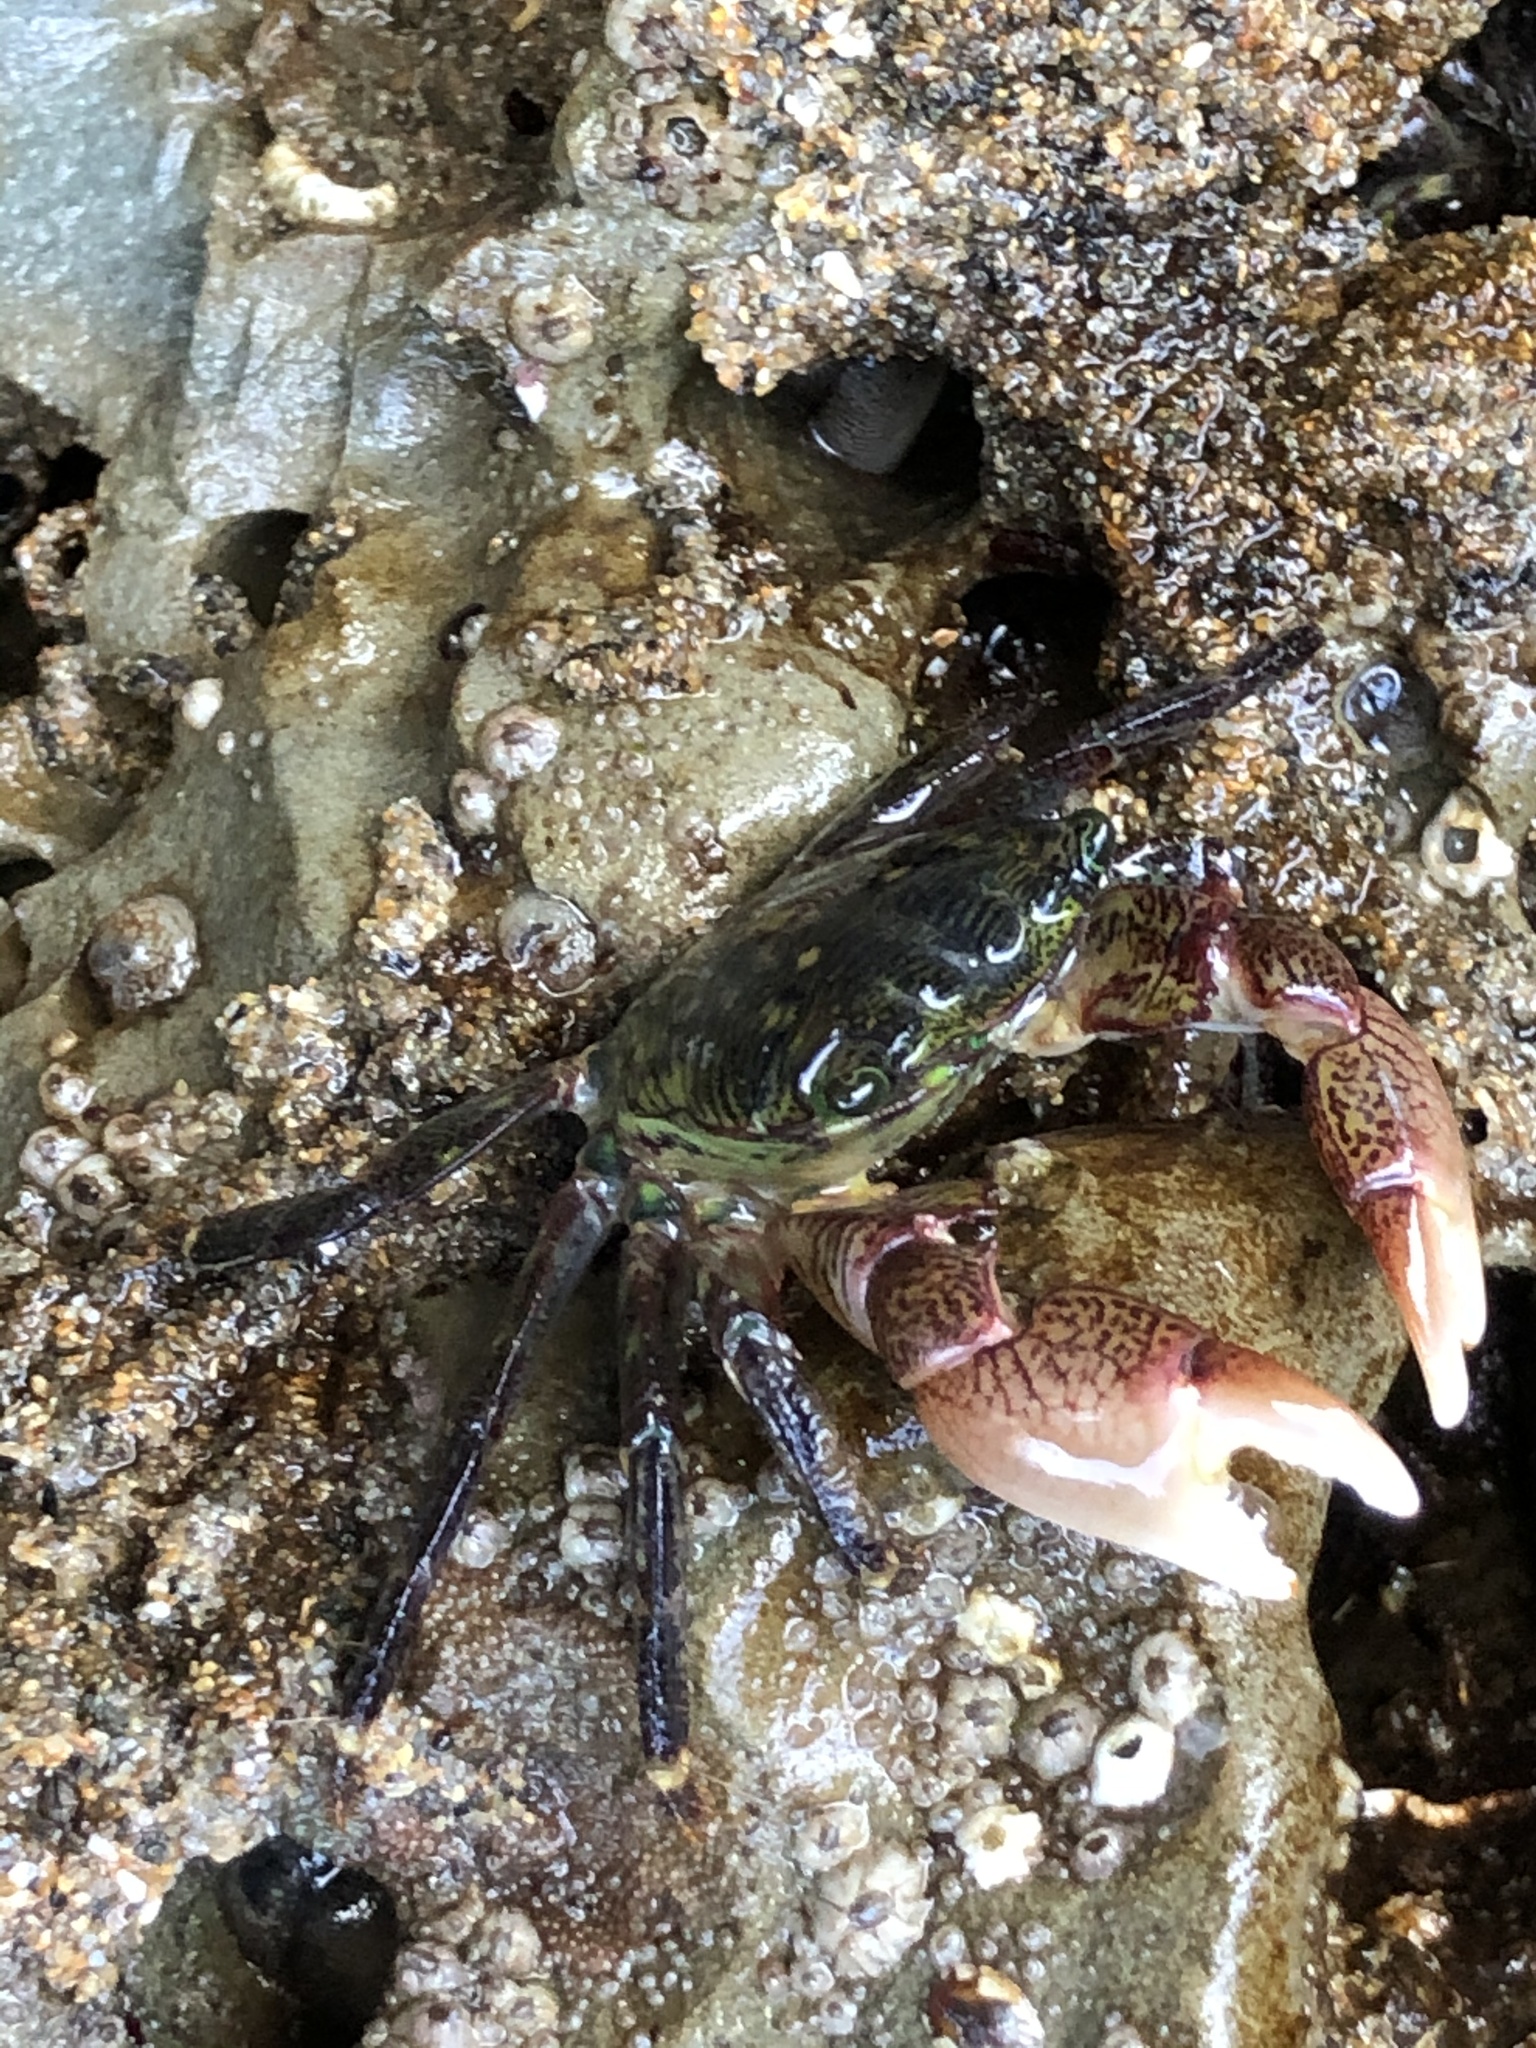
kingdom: Animalia
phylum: Arthropoda
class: Malacostraca
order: Decapoda
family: Grapsidae
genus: Pachygrapsus
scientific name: Pachygrapsus crassipes
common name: Striped shore crab
